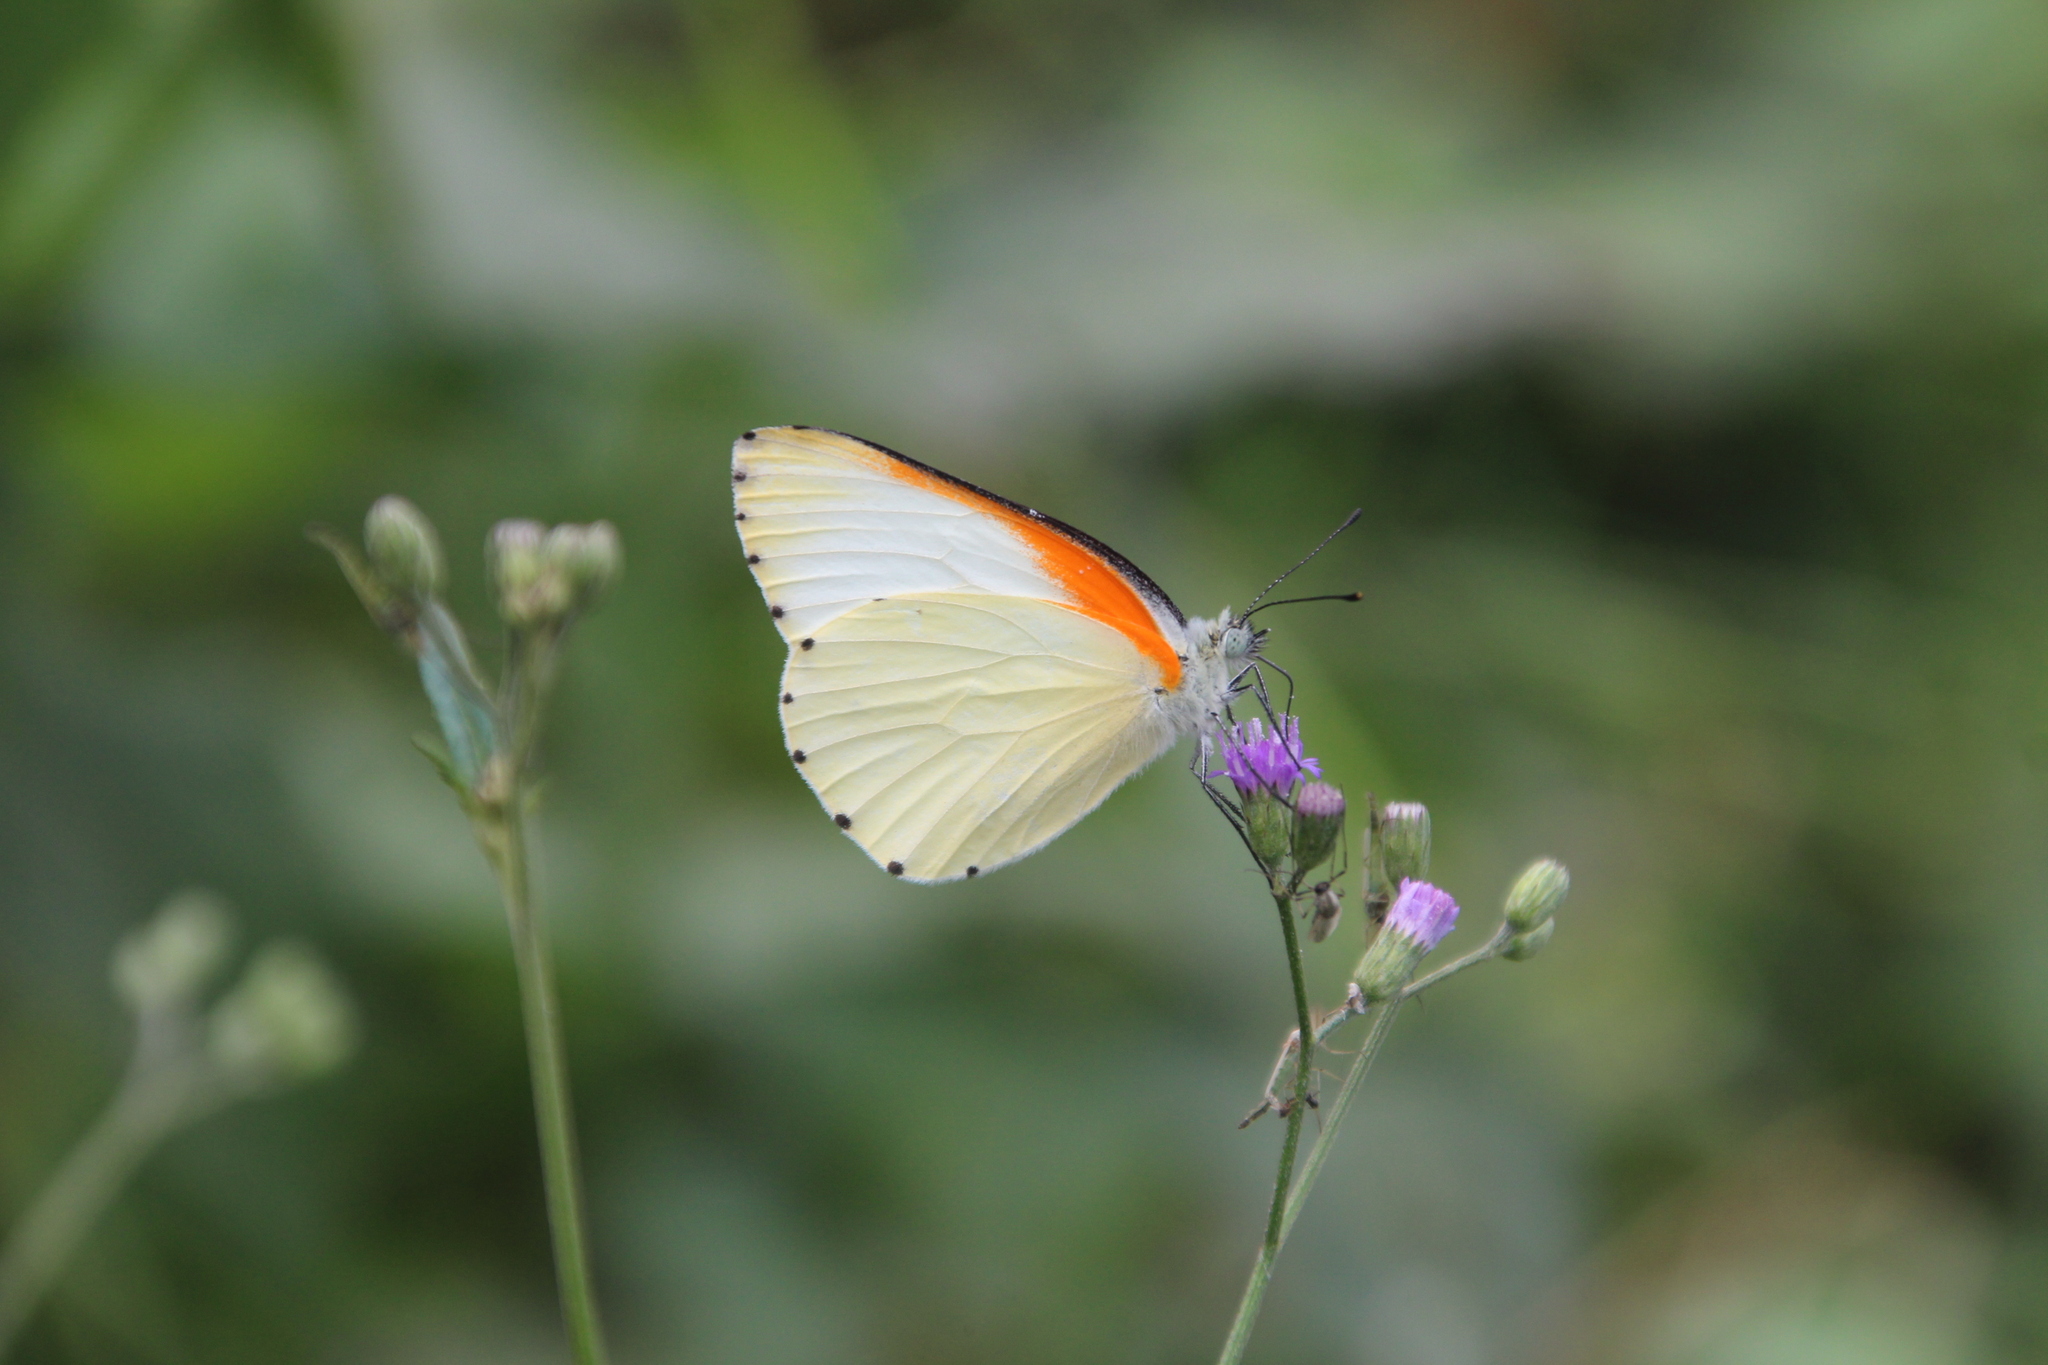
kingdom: Animalia
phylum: Arthropoda
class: Insecta
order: Lepidoptera
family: Pieridae
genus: Mylothris
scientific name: Mylothris bernice
